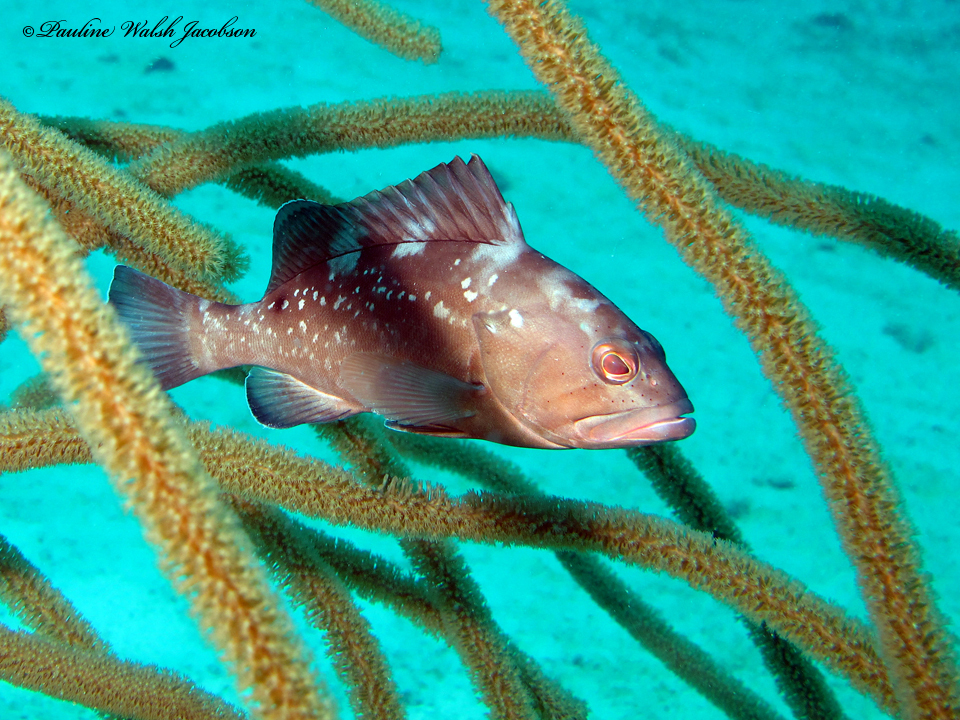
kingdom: Animalia
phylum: Chordata
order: Perciformes
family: Serranidae
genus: Epinephelus
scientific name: Epinephelus morio
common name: Red grouper
